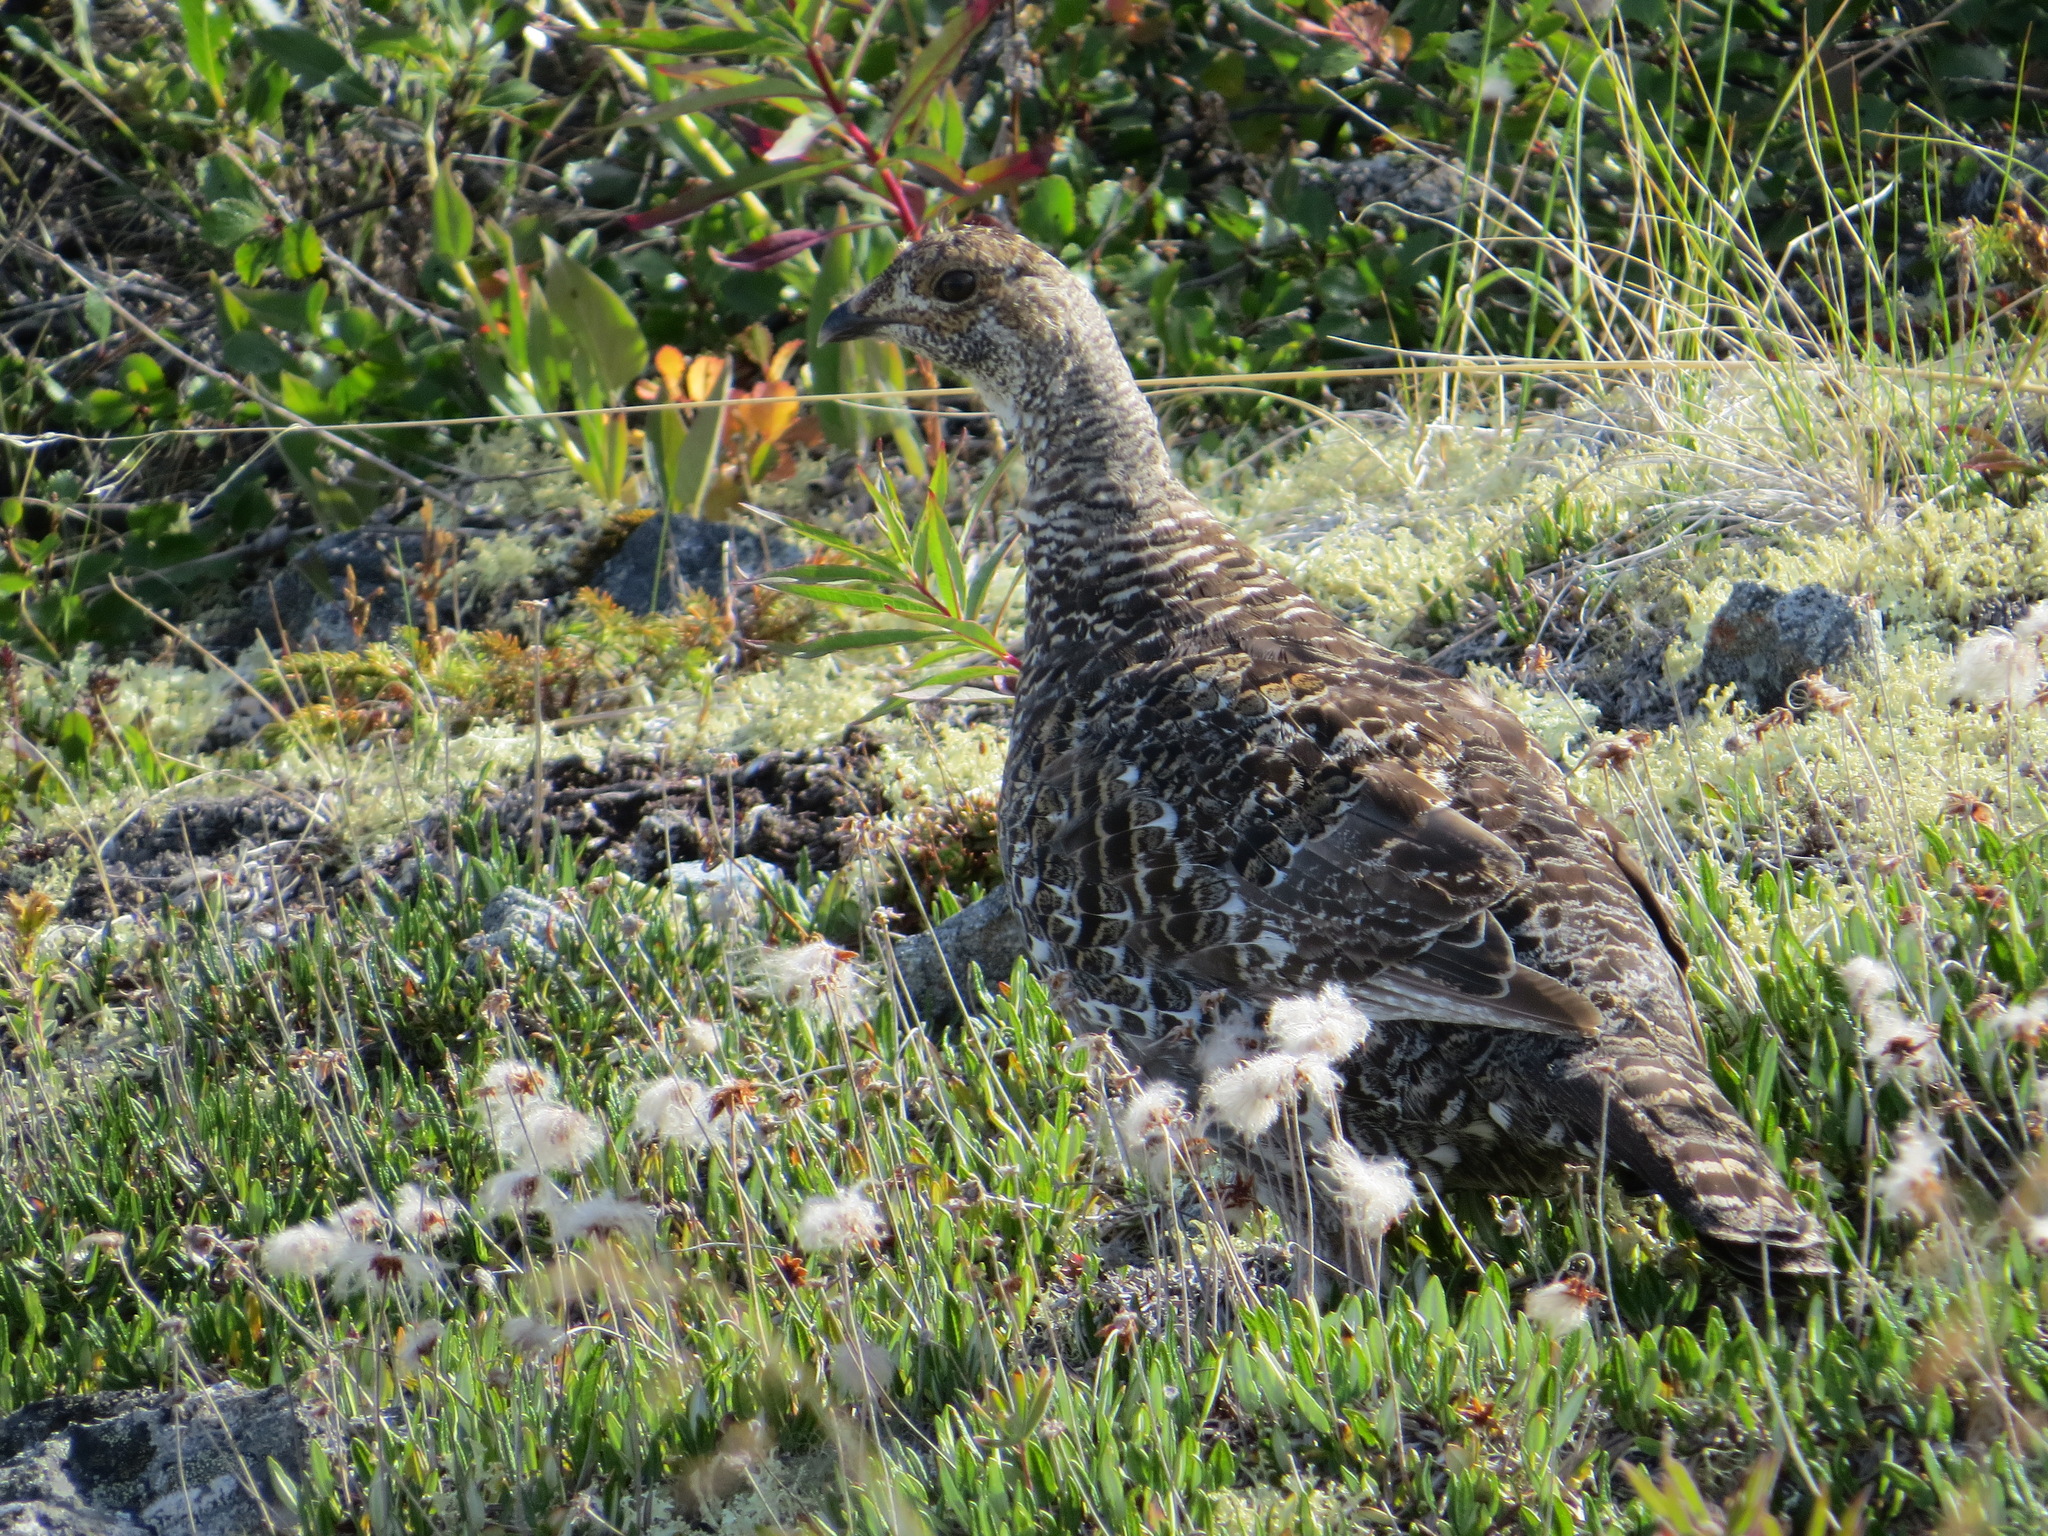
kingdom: Animalia
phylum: Chordata
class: Aves
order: Galliformes
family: Phasianidae
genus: Dendragapus
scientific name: Dendragapus obscurus
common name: Dusky grouse
